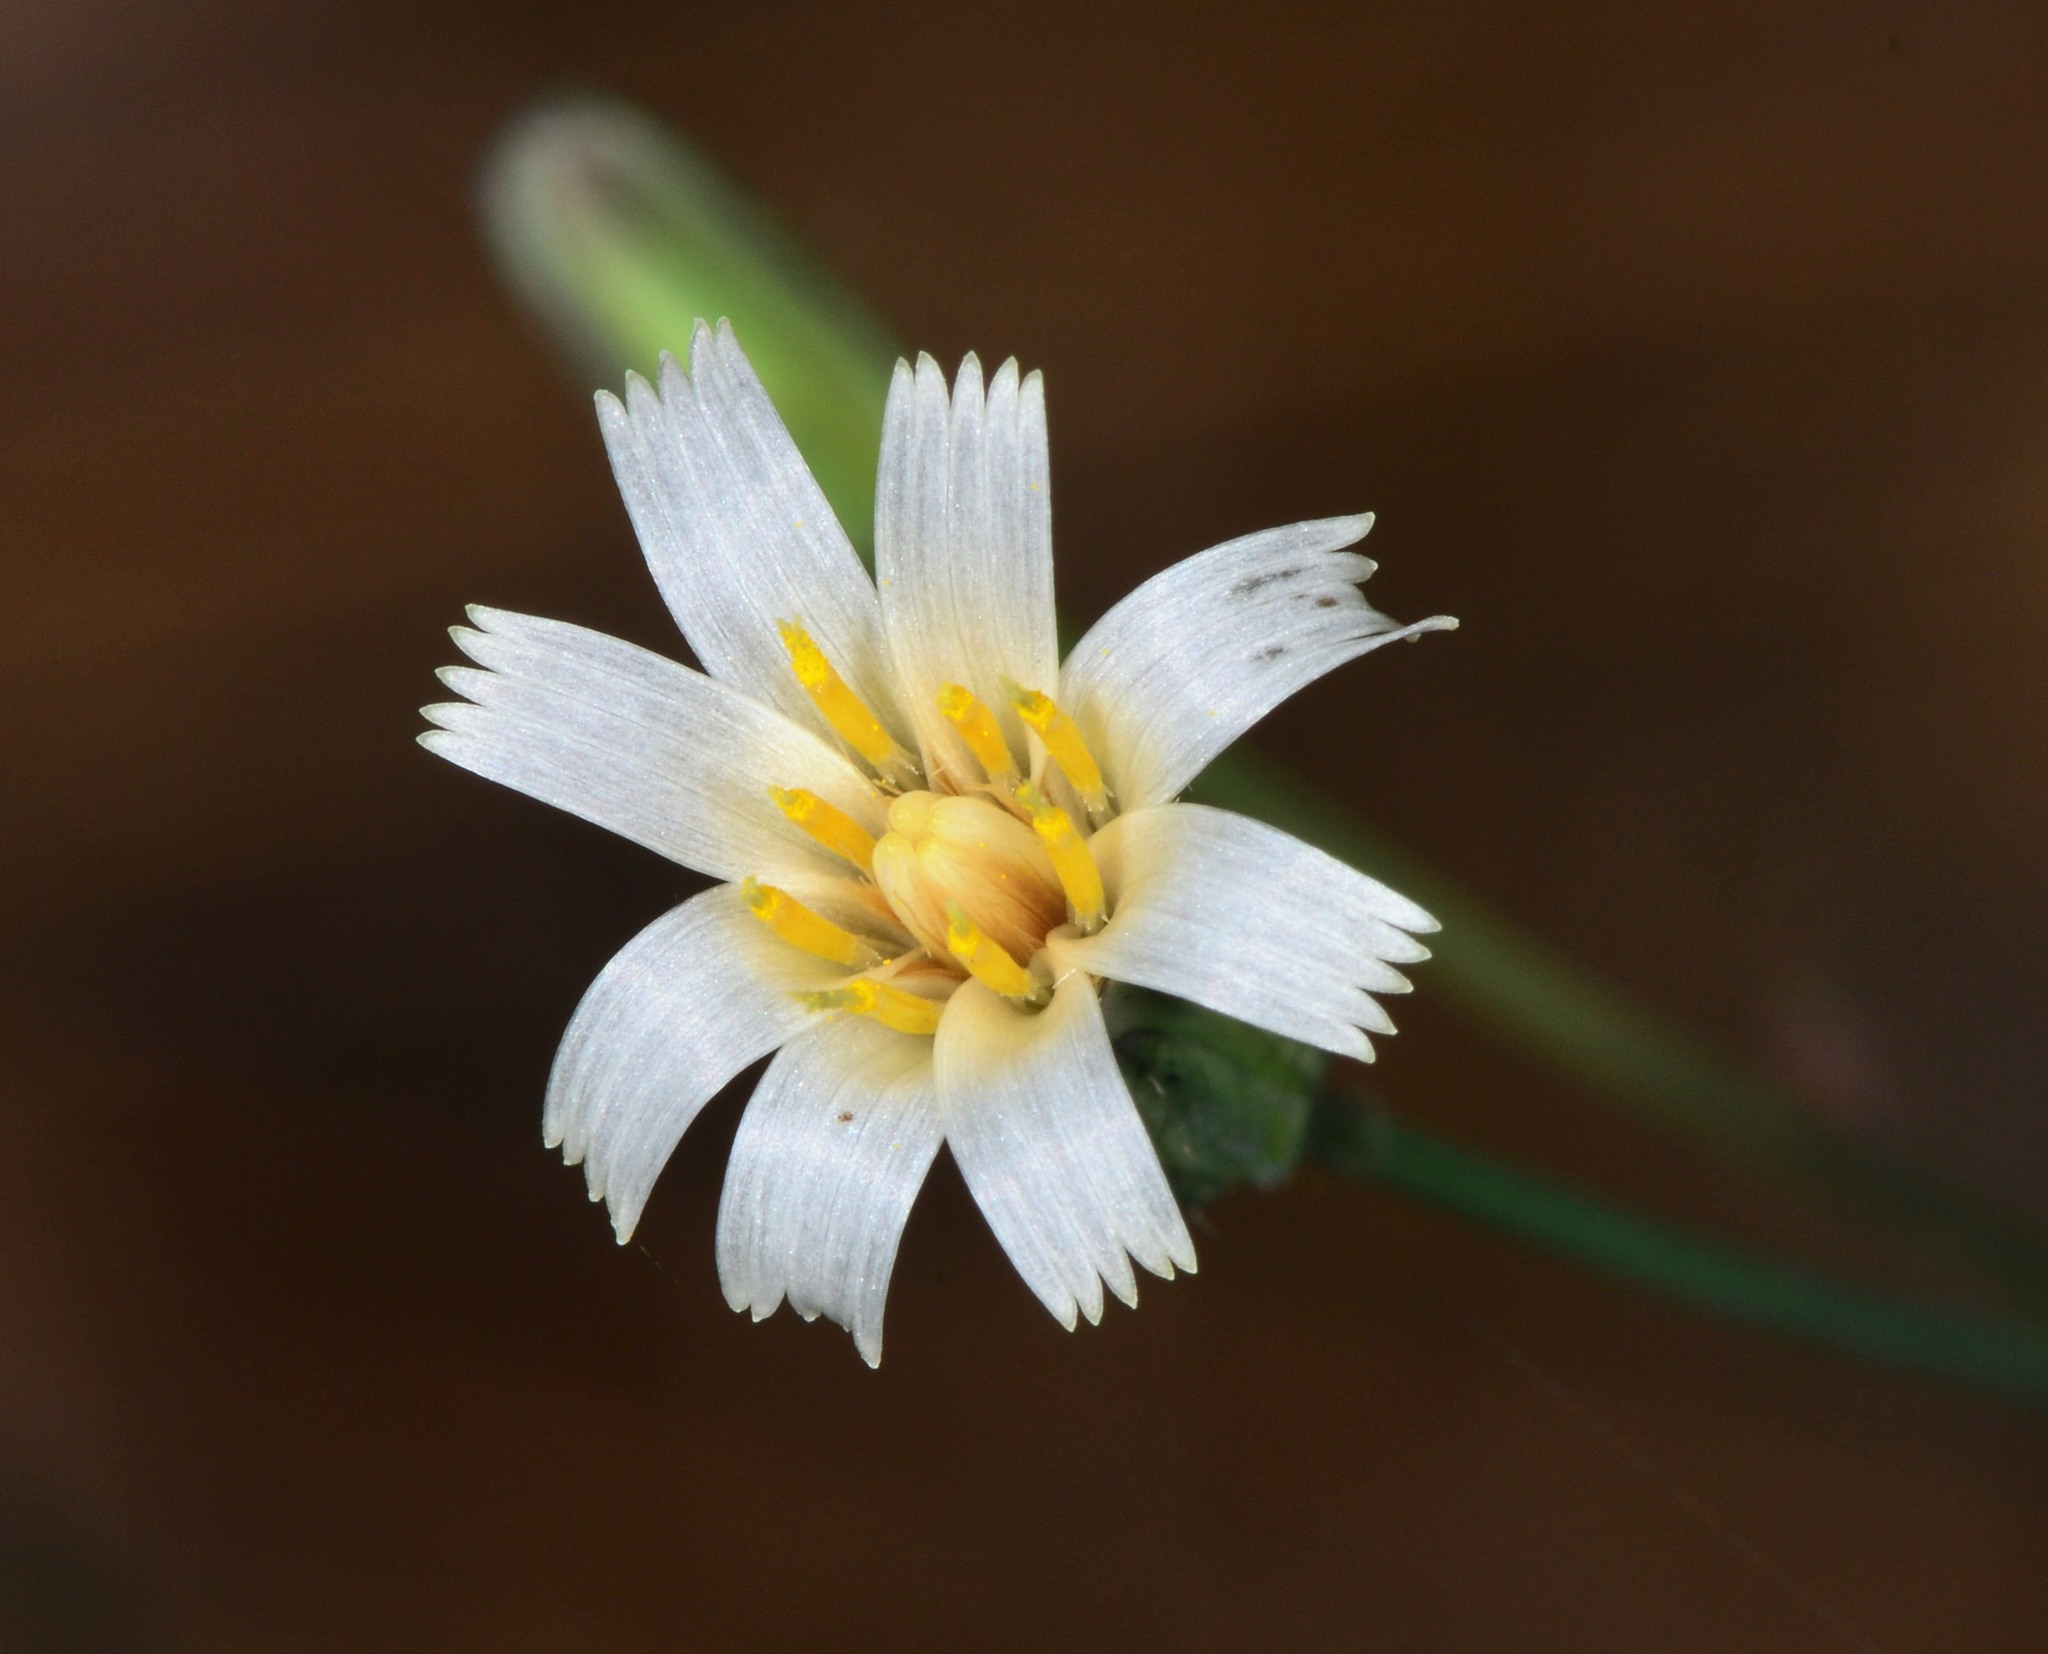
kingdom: Plantae
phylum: Tracheophyta
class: Magnoliopsida
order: Asterales
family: Asteraceae
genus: Hieracium
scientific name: Hieracium albiflorum
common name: White hawkweed
